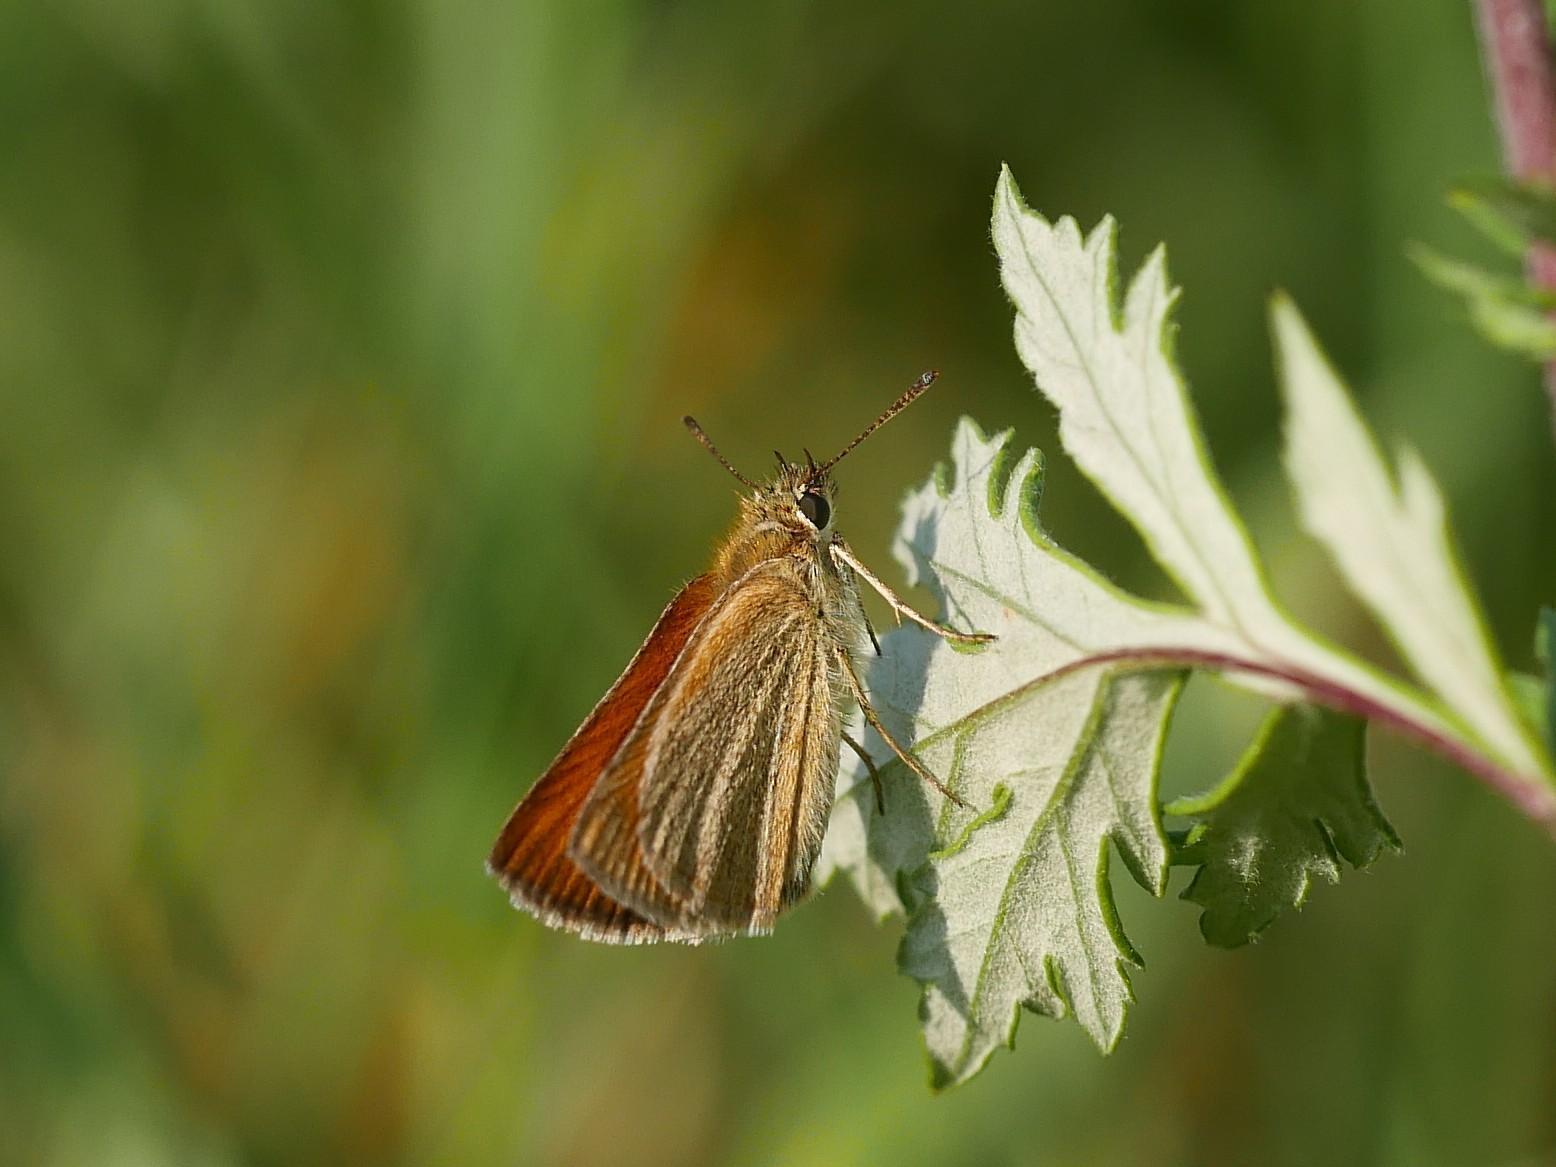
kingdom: Animalia
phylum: Arthropoda
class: Insecta
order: Lepidoptera
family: Hesperiidae
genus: Thymelicus
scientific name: Thymelicus lineola
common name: Essex skipper
